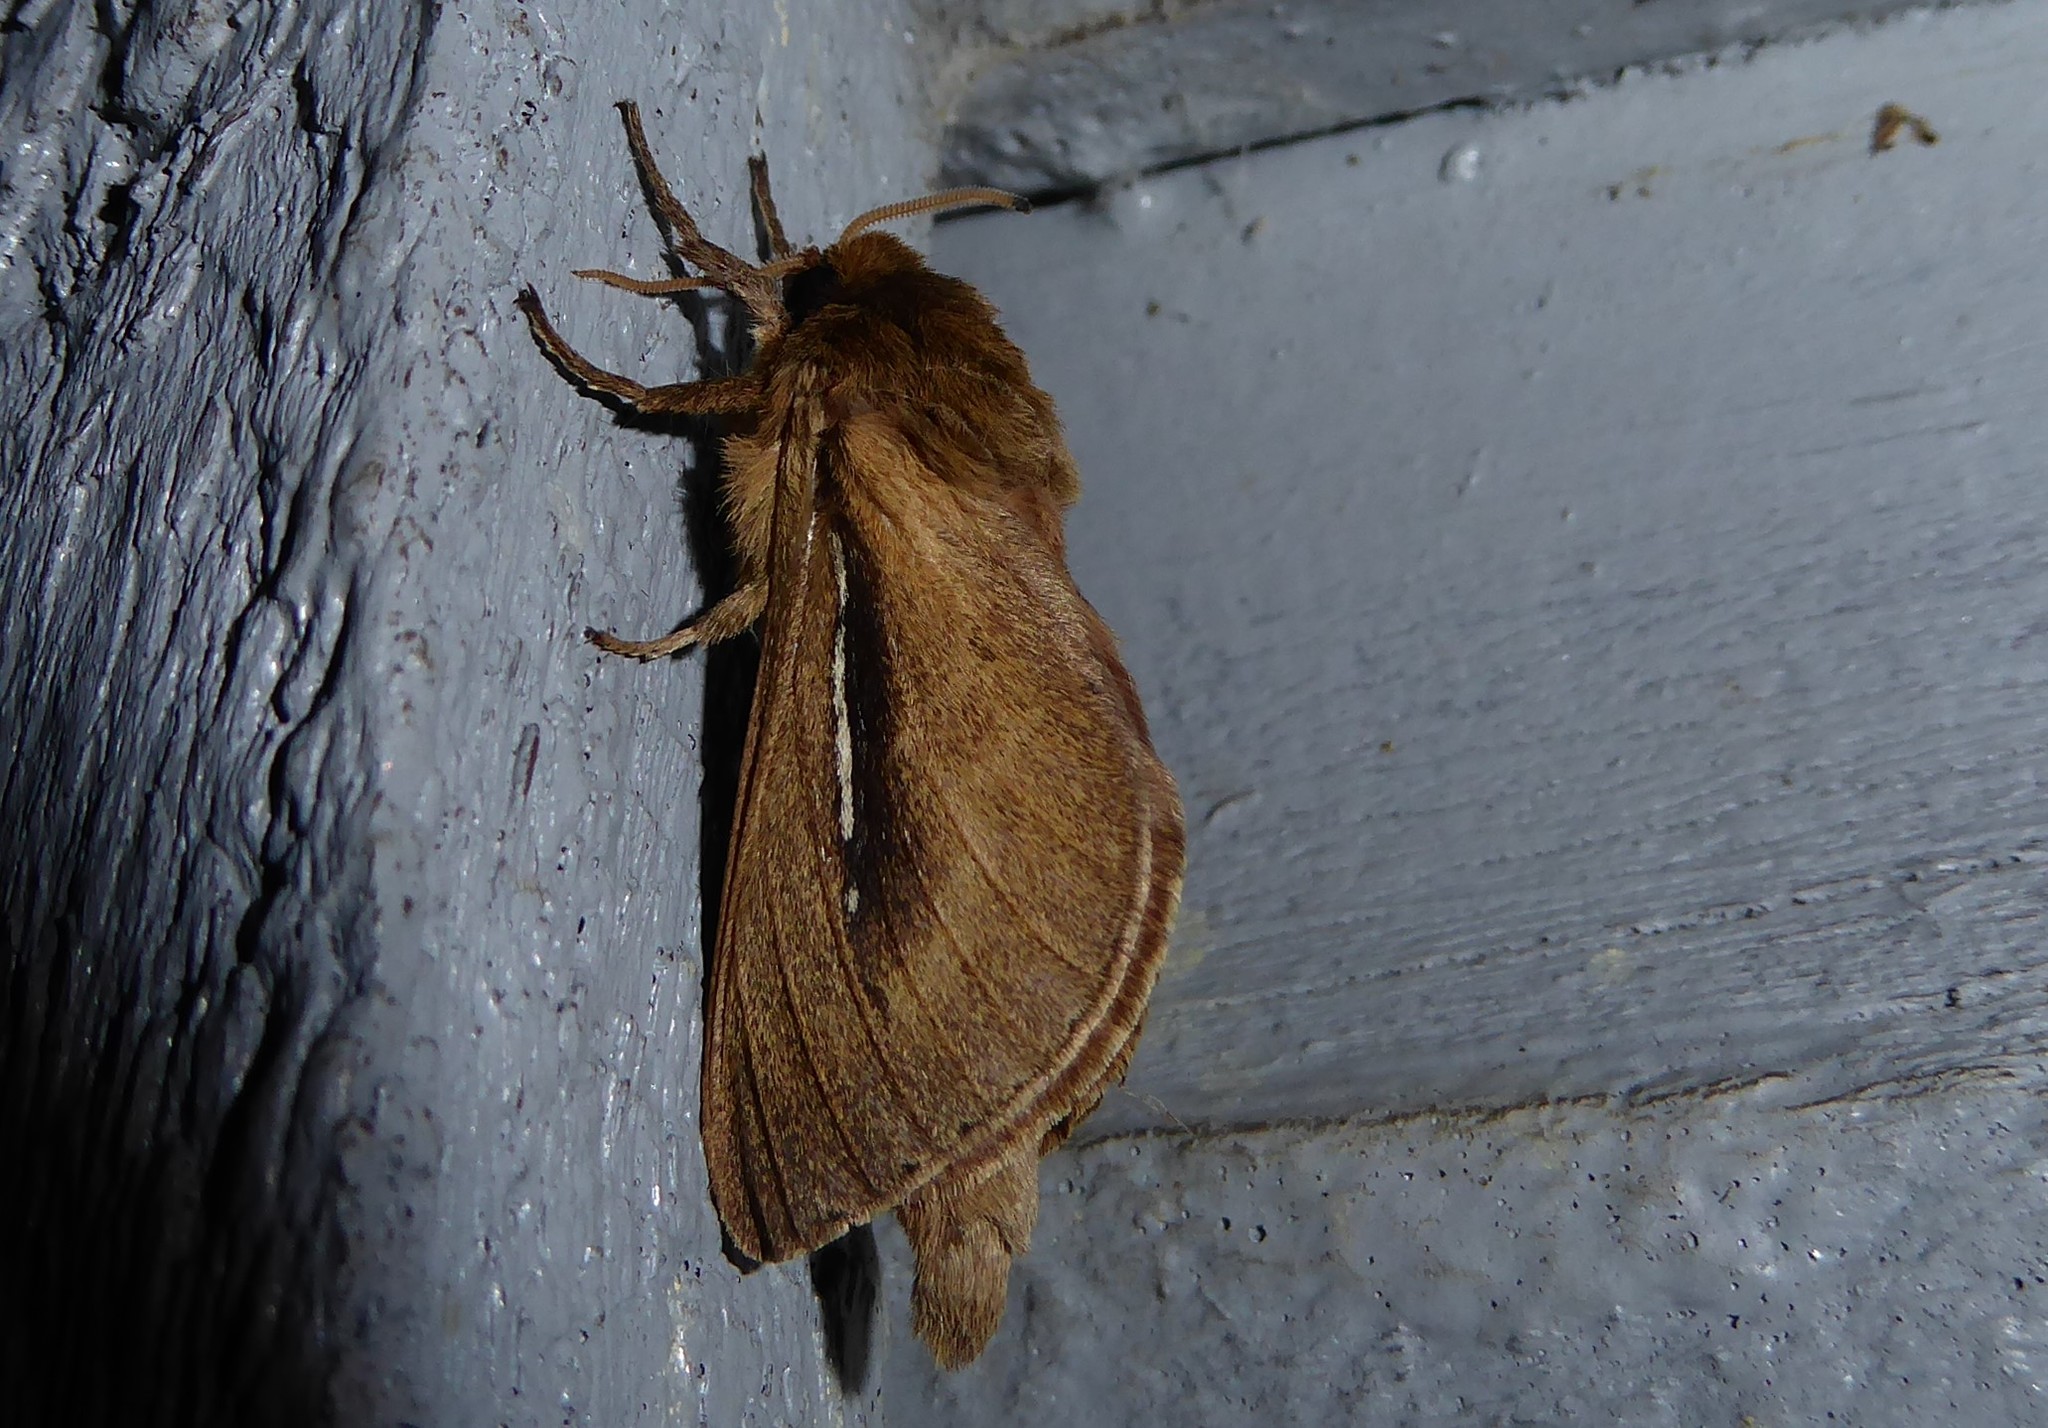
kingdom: Animalia
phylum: Arthropoda
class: Insecta
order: Lepidoptera
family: Hepialidae
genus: Wiseana
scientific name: Wiseana umbraculatus
